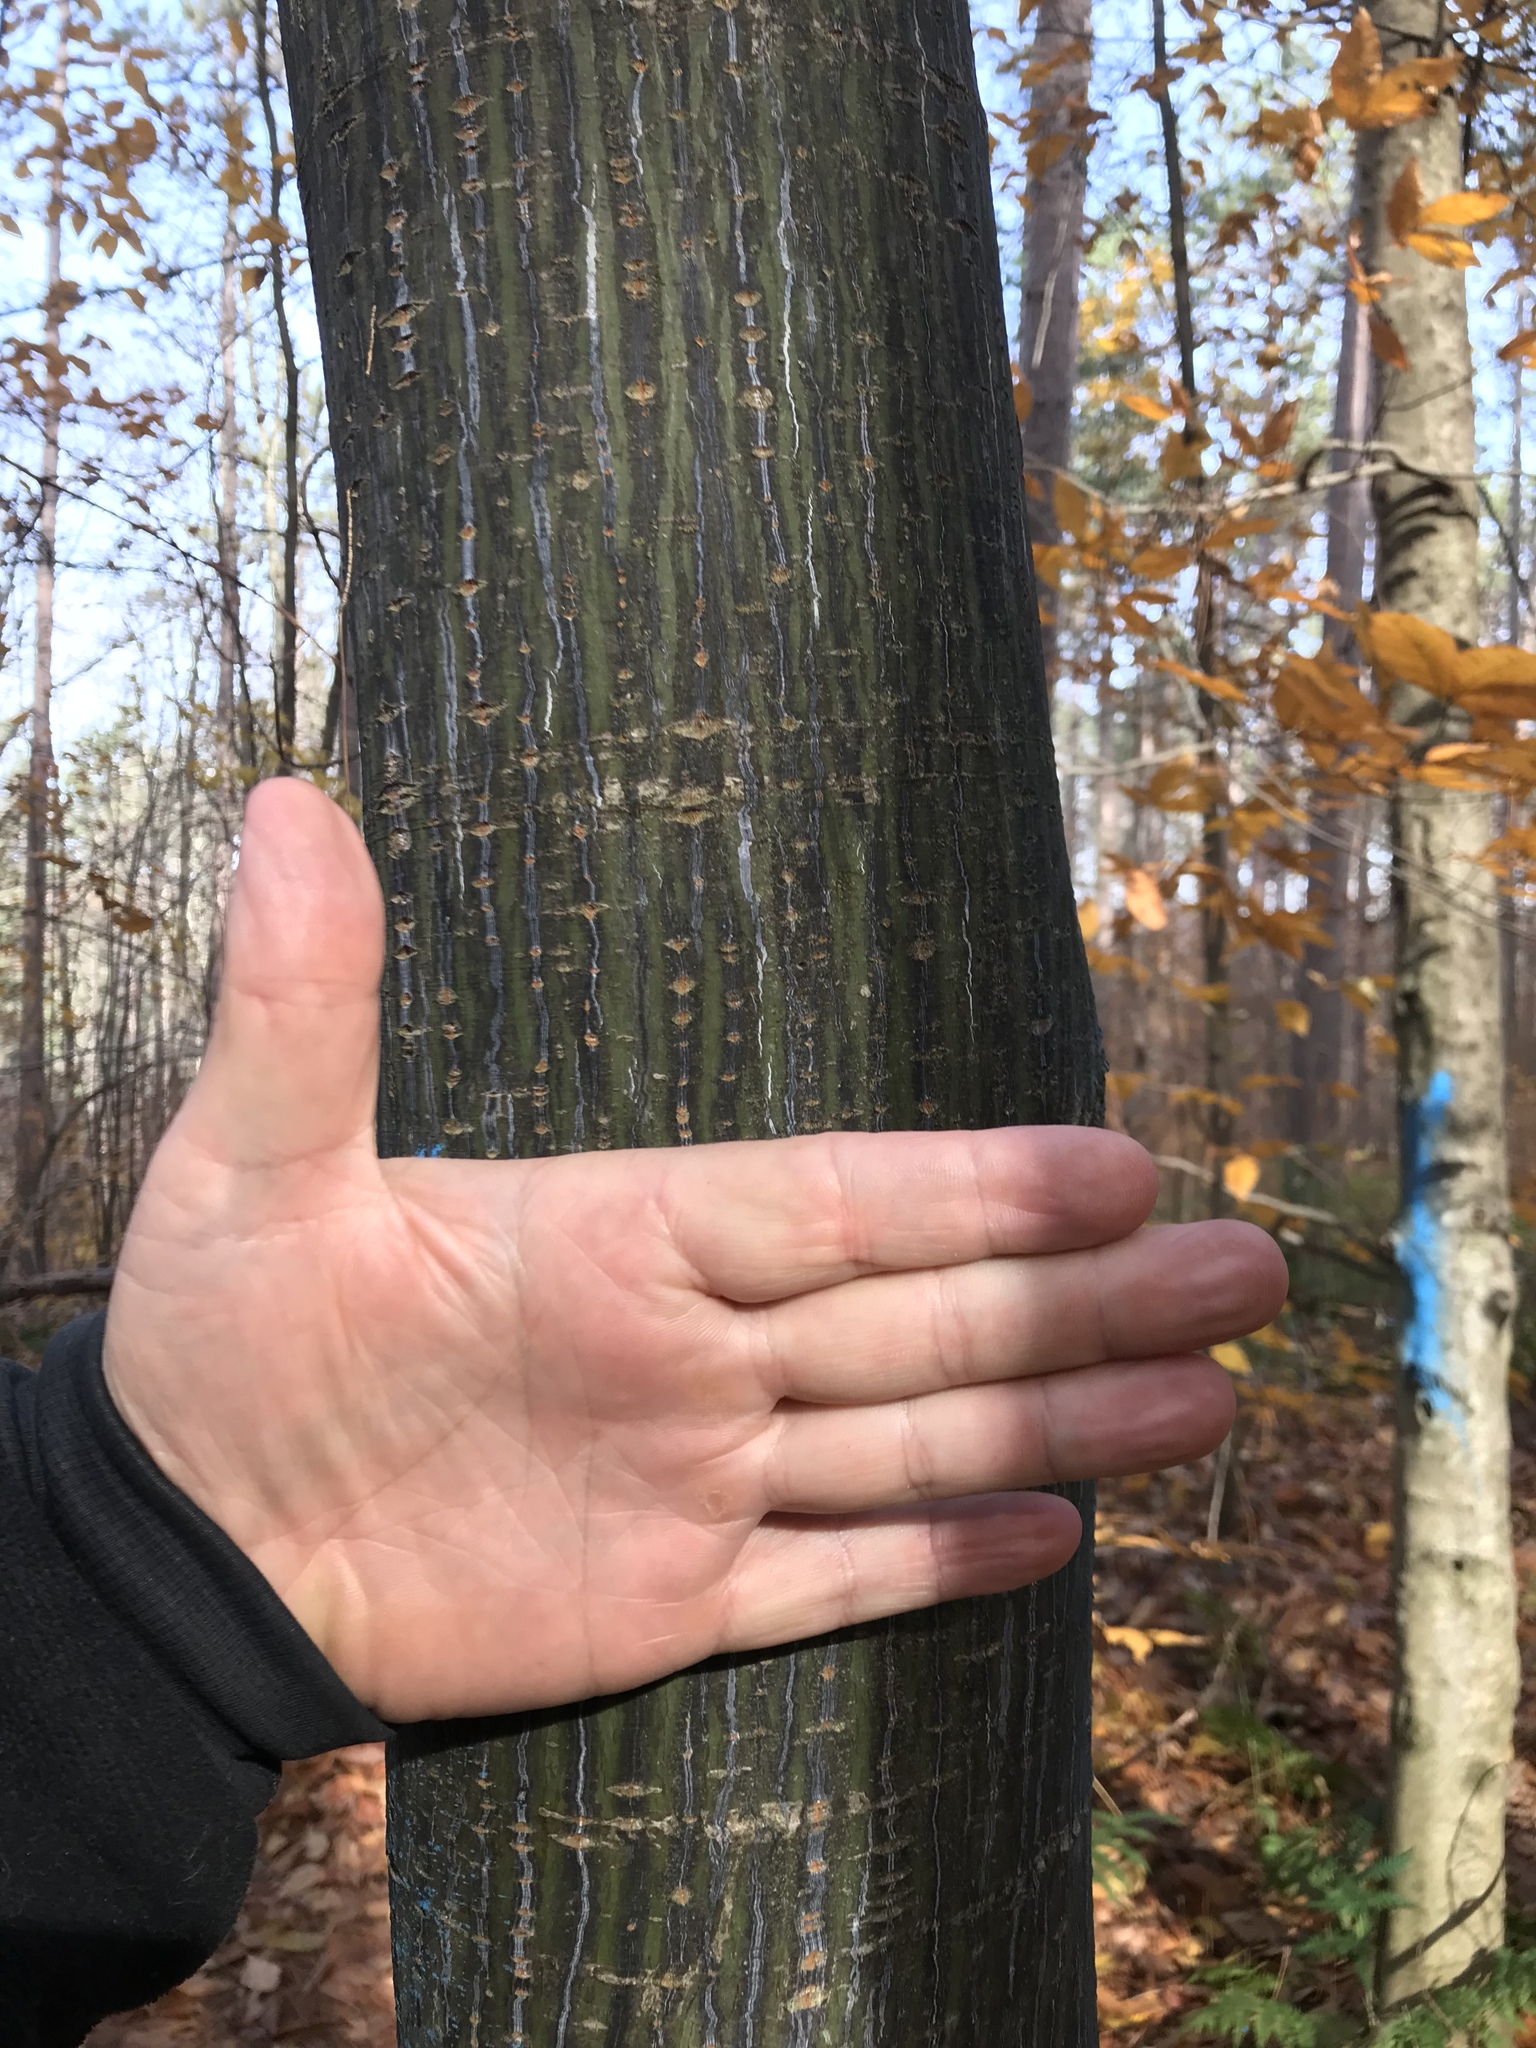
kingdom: Plantae
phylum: Tracheophyta
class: Magnoliopsida
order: Sapindales
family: Sapindaceae
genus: Acer
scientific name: Acer pensylvanicum
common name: Moosewood
